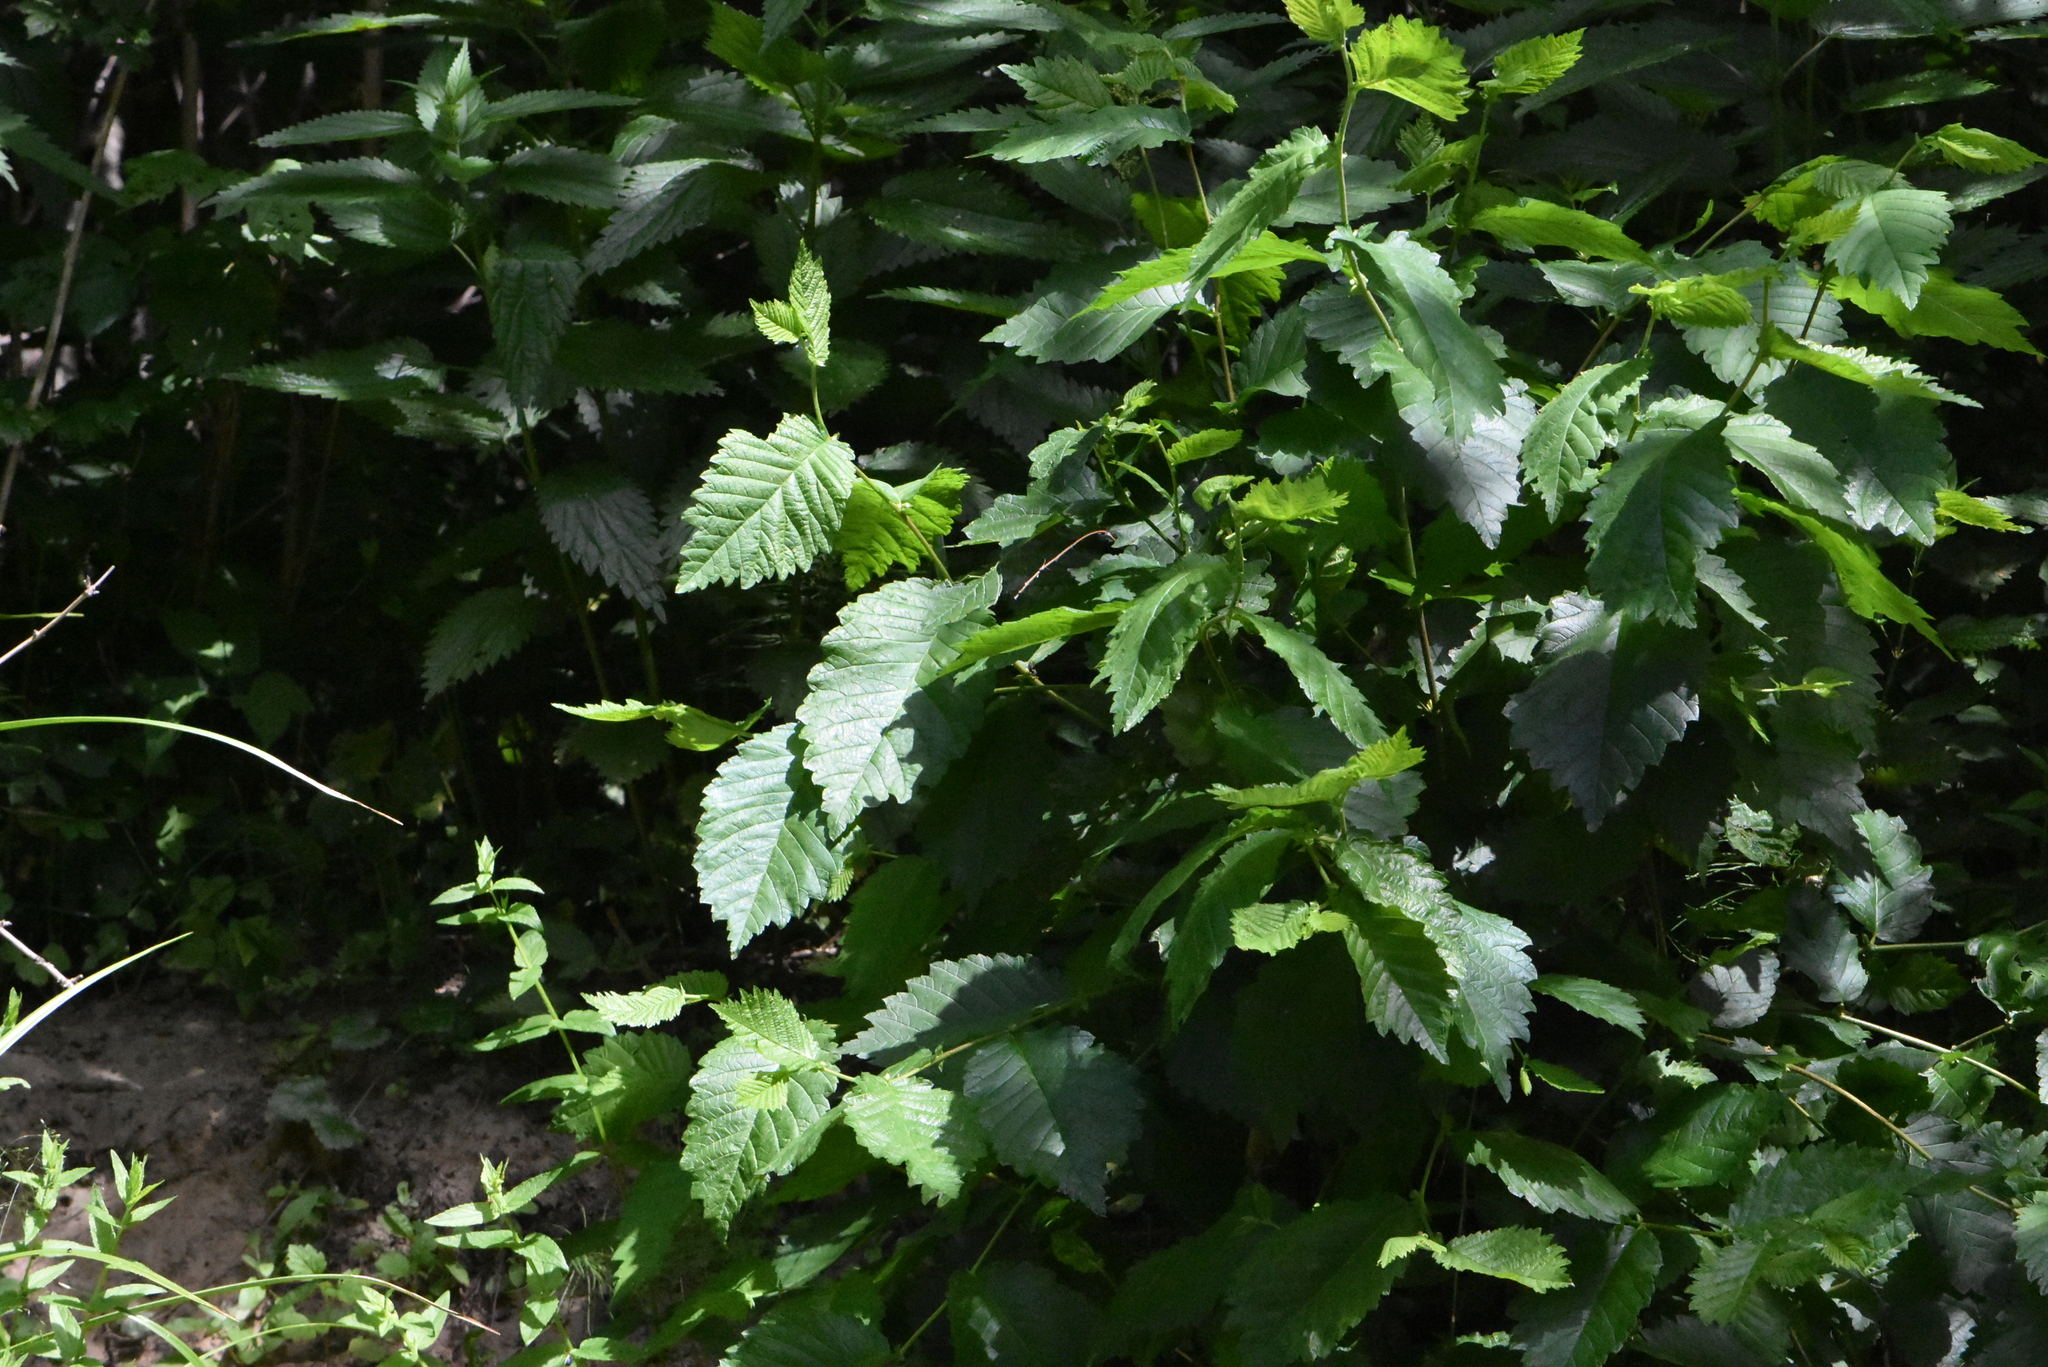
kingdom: Plantae
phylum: Tracheophyta
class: Magnoliopsida
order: Rosales
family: Ulmaceae
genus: Ulmus
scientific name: Ulmus laevis
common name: European white-elm
